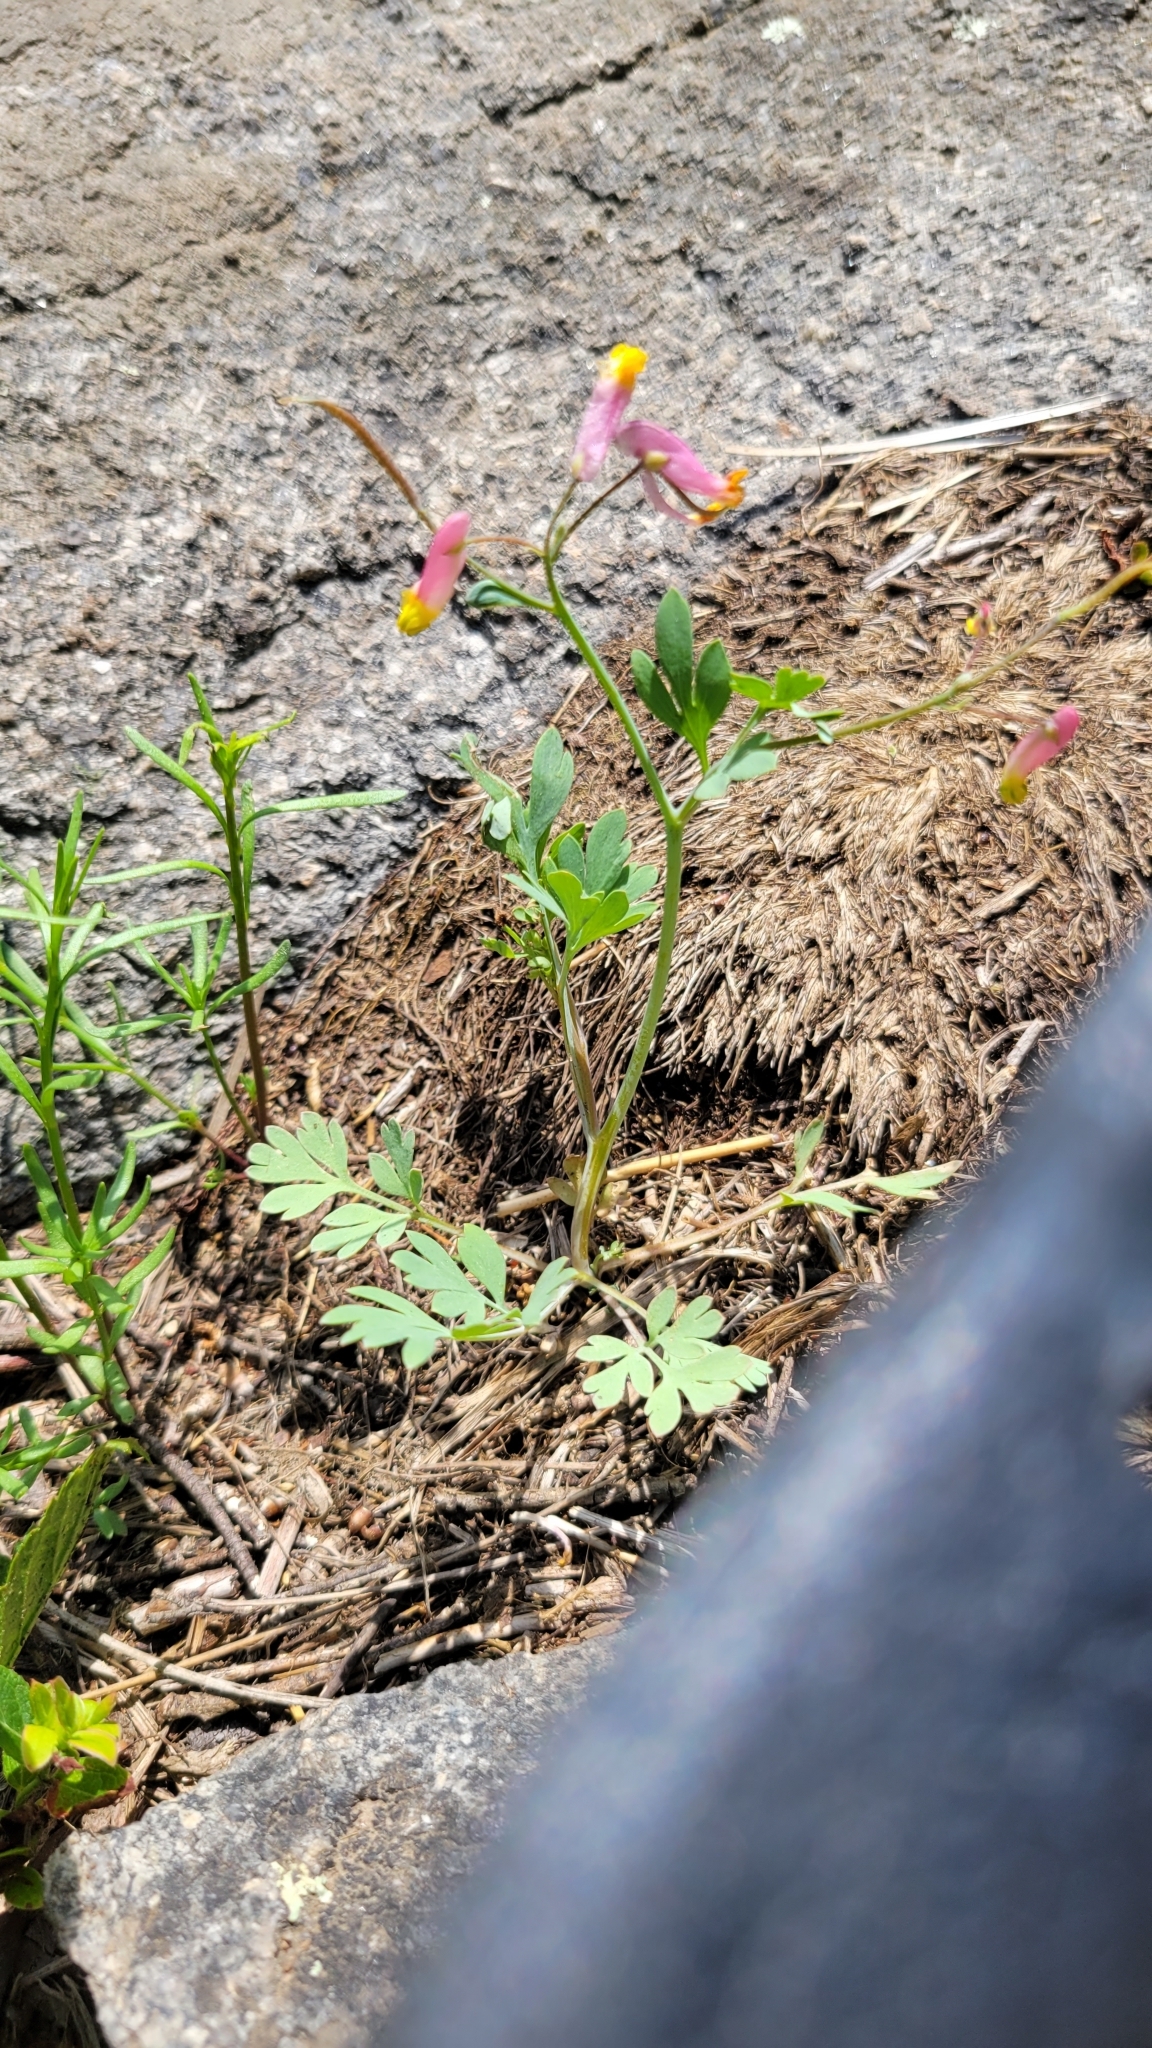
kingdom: Plantae
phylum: Tracheophyta
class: Magnoliopsida
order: Ranunculales
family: Papaveraceae
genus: Capnoides
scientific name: Capnoides sempervirens
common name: Rock harlequin
